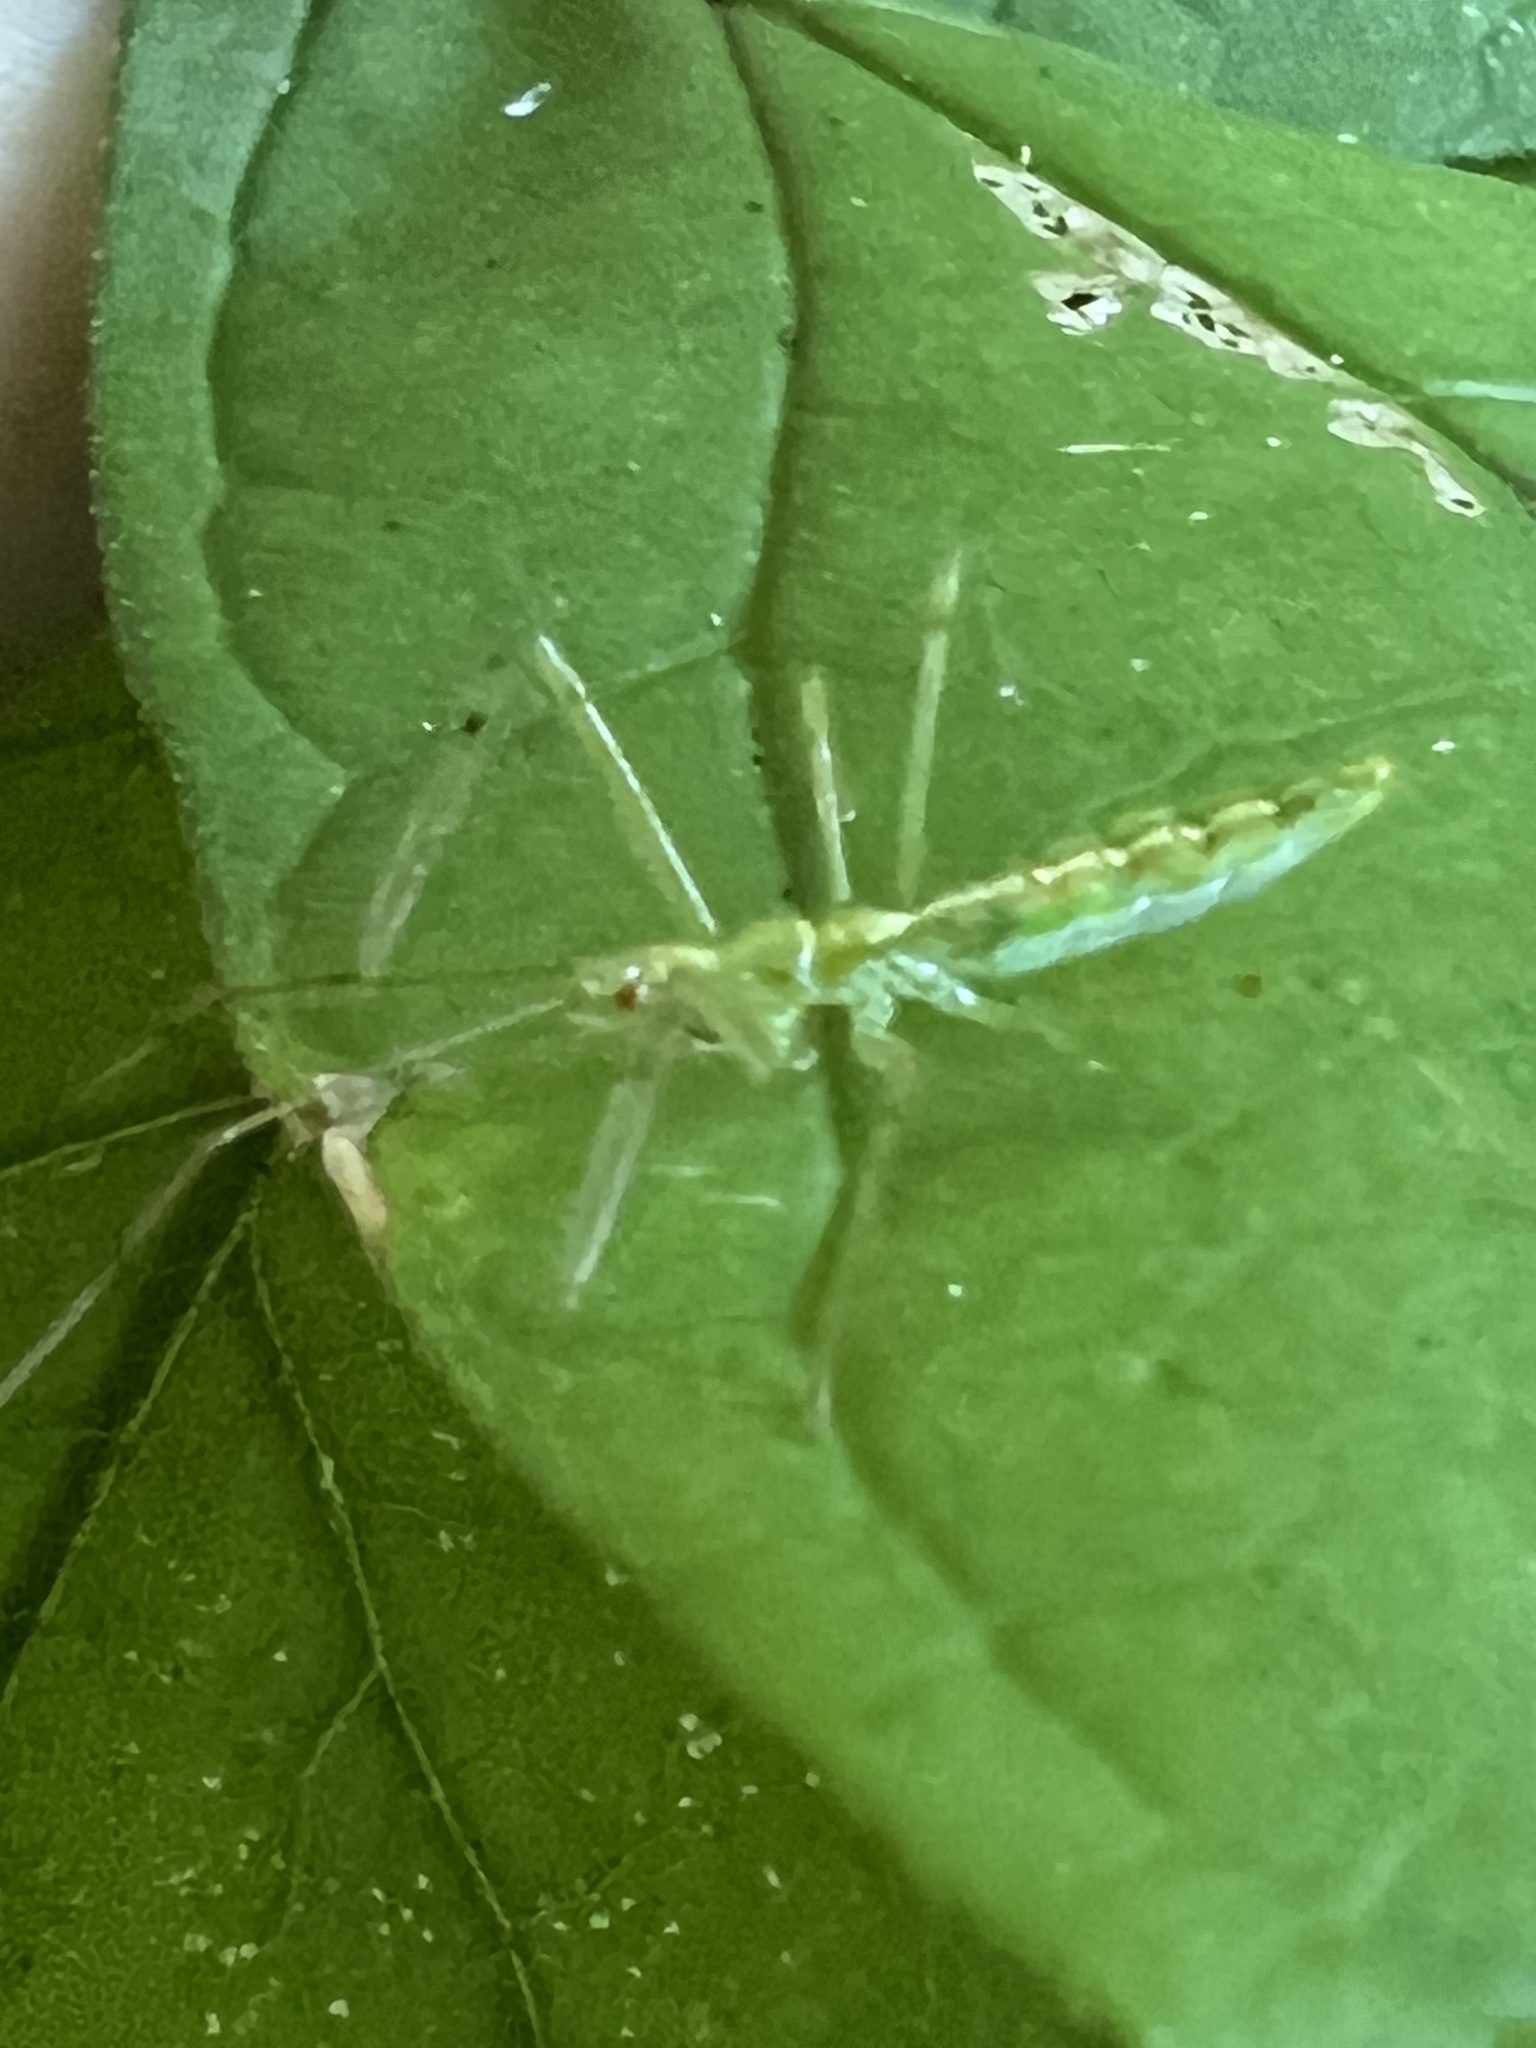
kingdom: Animalia
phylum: Arthropoda
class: Insecta
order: Hemiptera
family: Reduviidae
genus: Zelus
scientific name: Zelus luridus
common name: Pale green assassin bug
